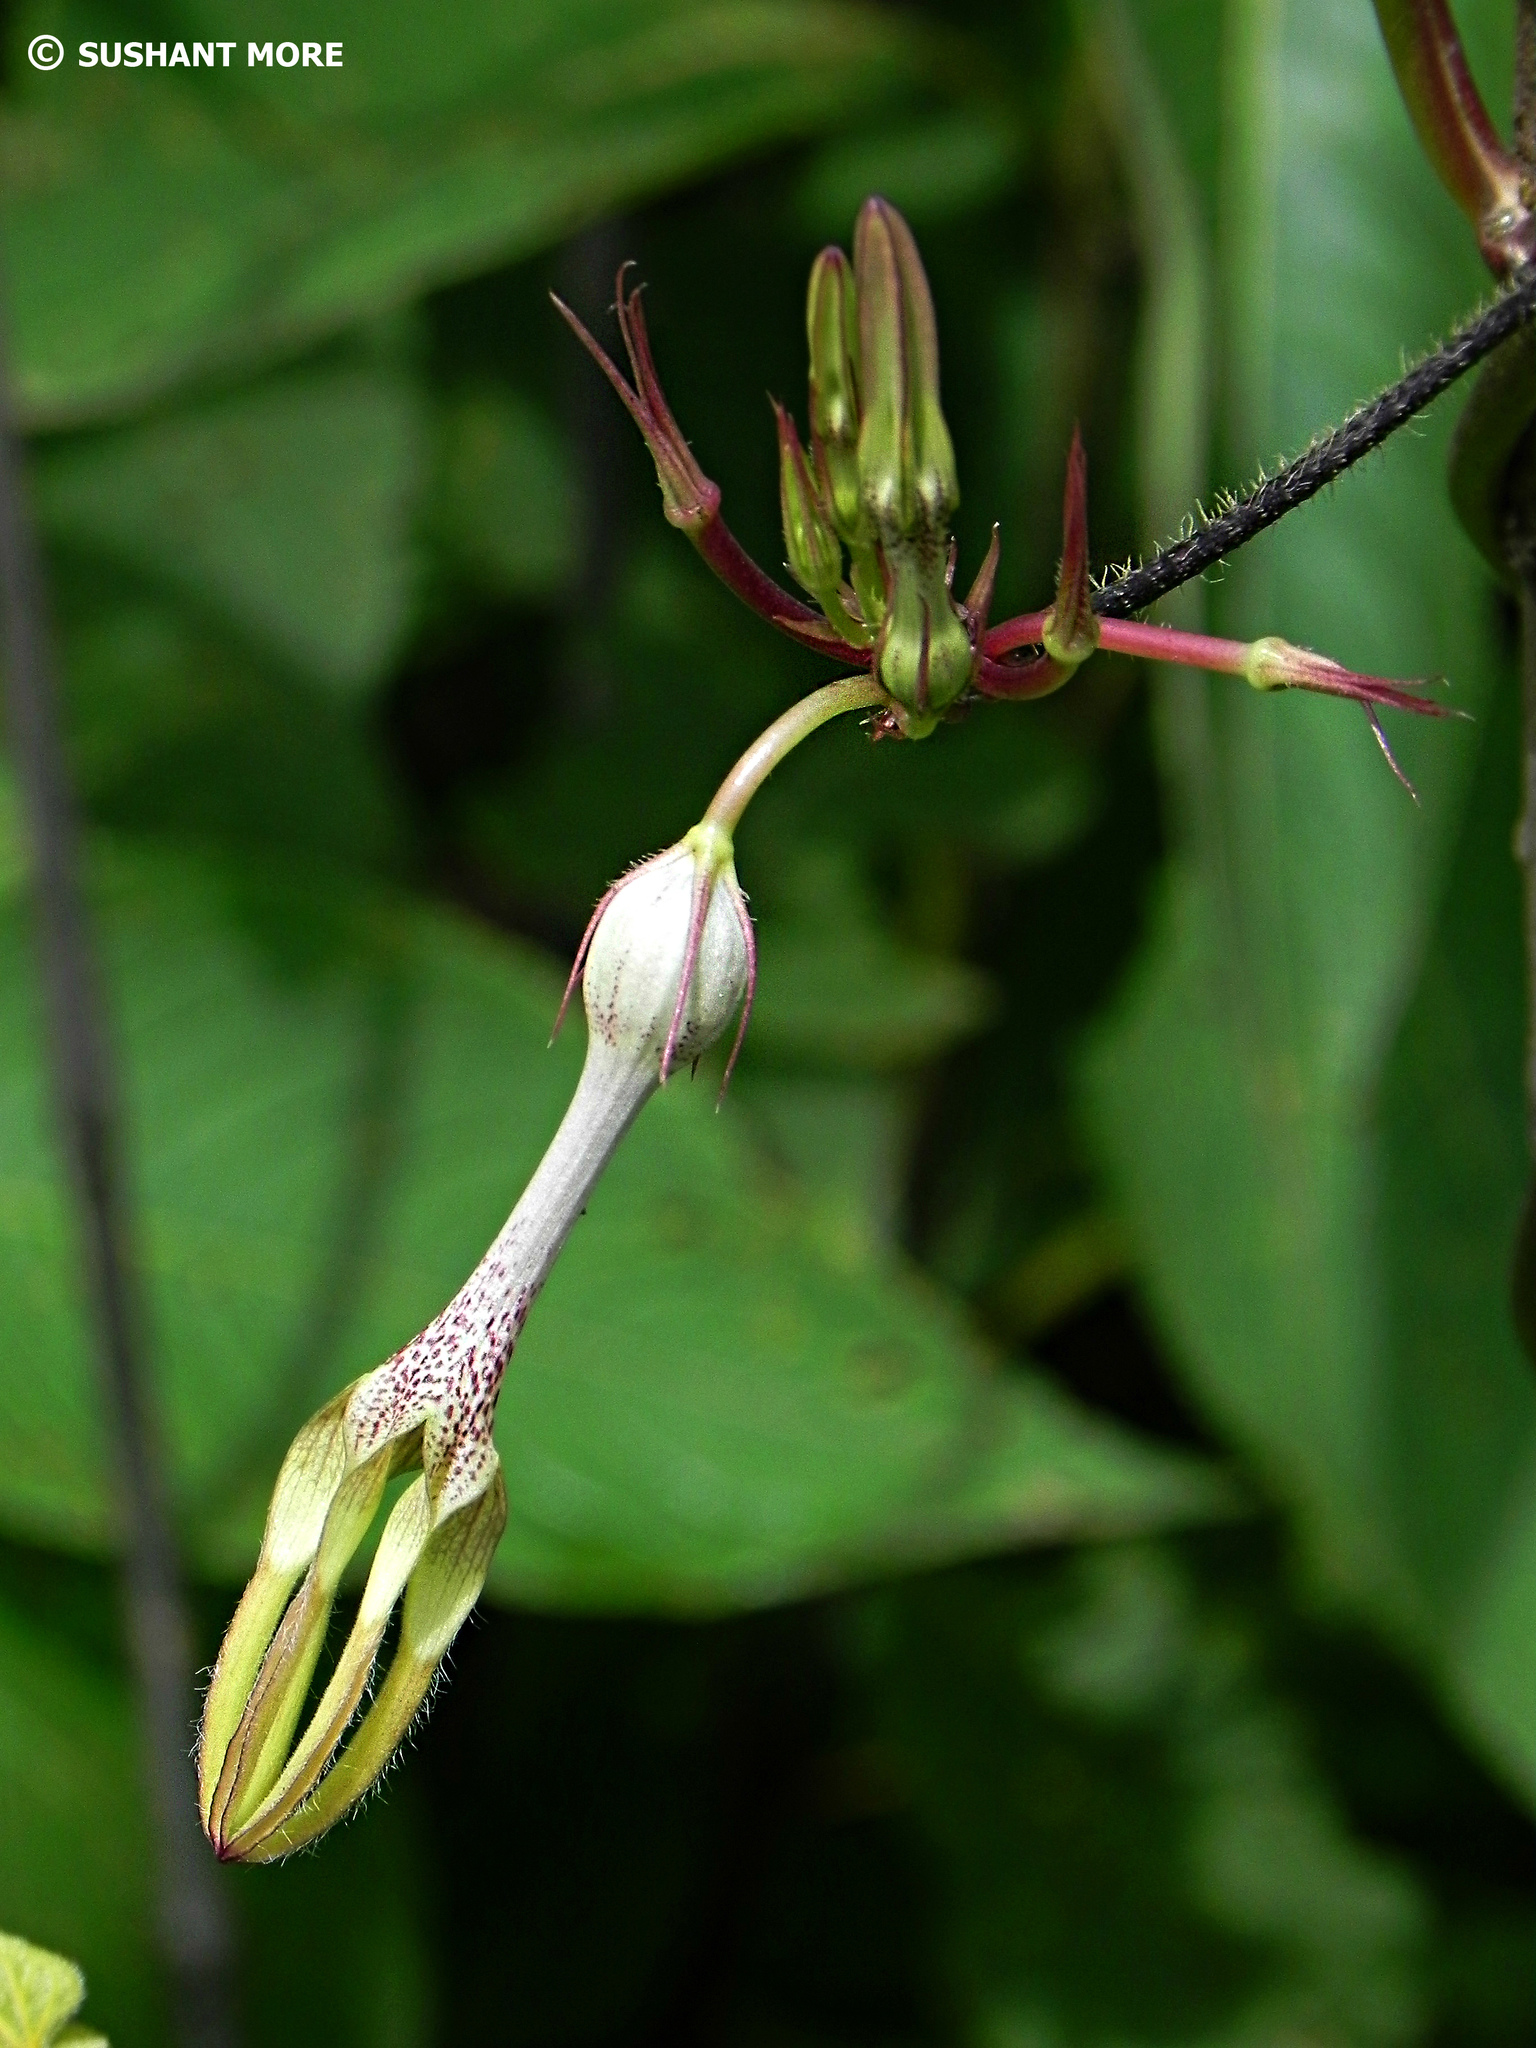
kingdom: Plantae
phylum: Tracheophyta
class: Magnoliopsida
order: Gentianales
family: Apocynaceae
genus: Ceropegia
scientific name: Ceropegia vincifolia
